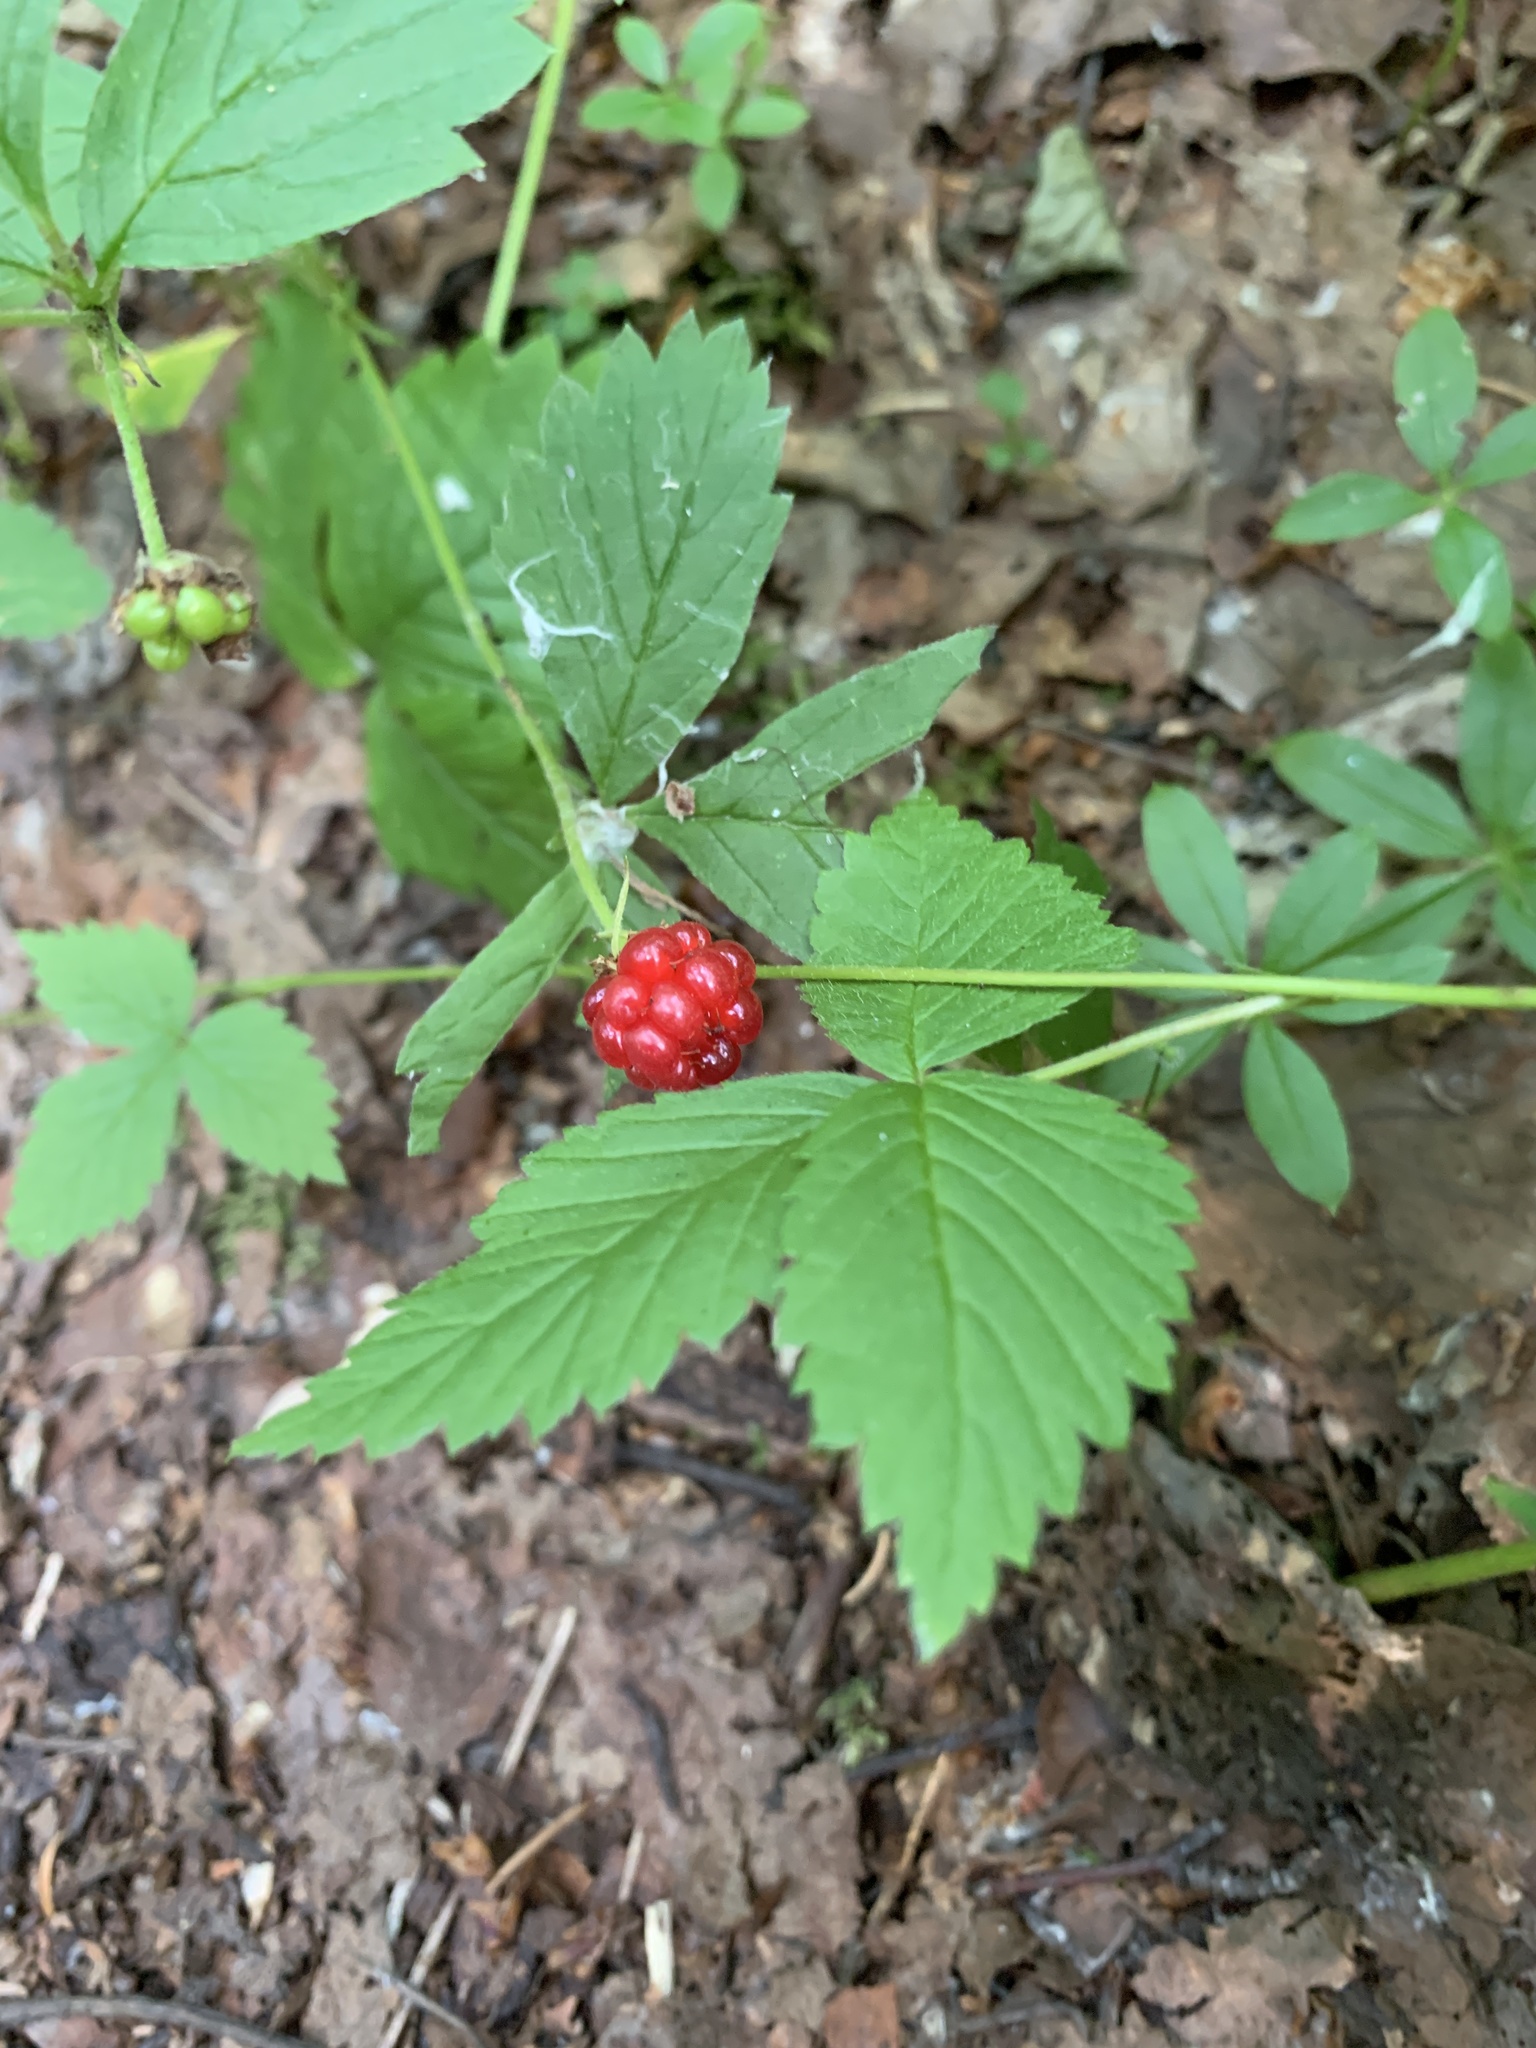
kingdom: Plantae
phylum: Tracheophyta
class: Magnoliopsida
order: Rosales
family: Rosaceae
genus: Rubus
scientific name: Rubus pubescens
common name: Dwarf raspberry
